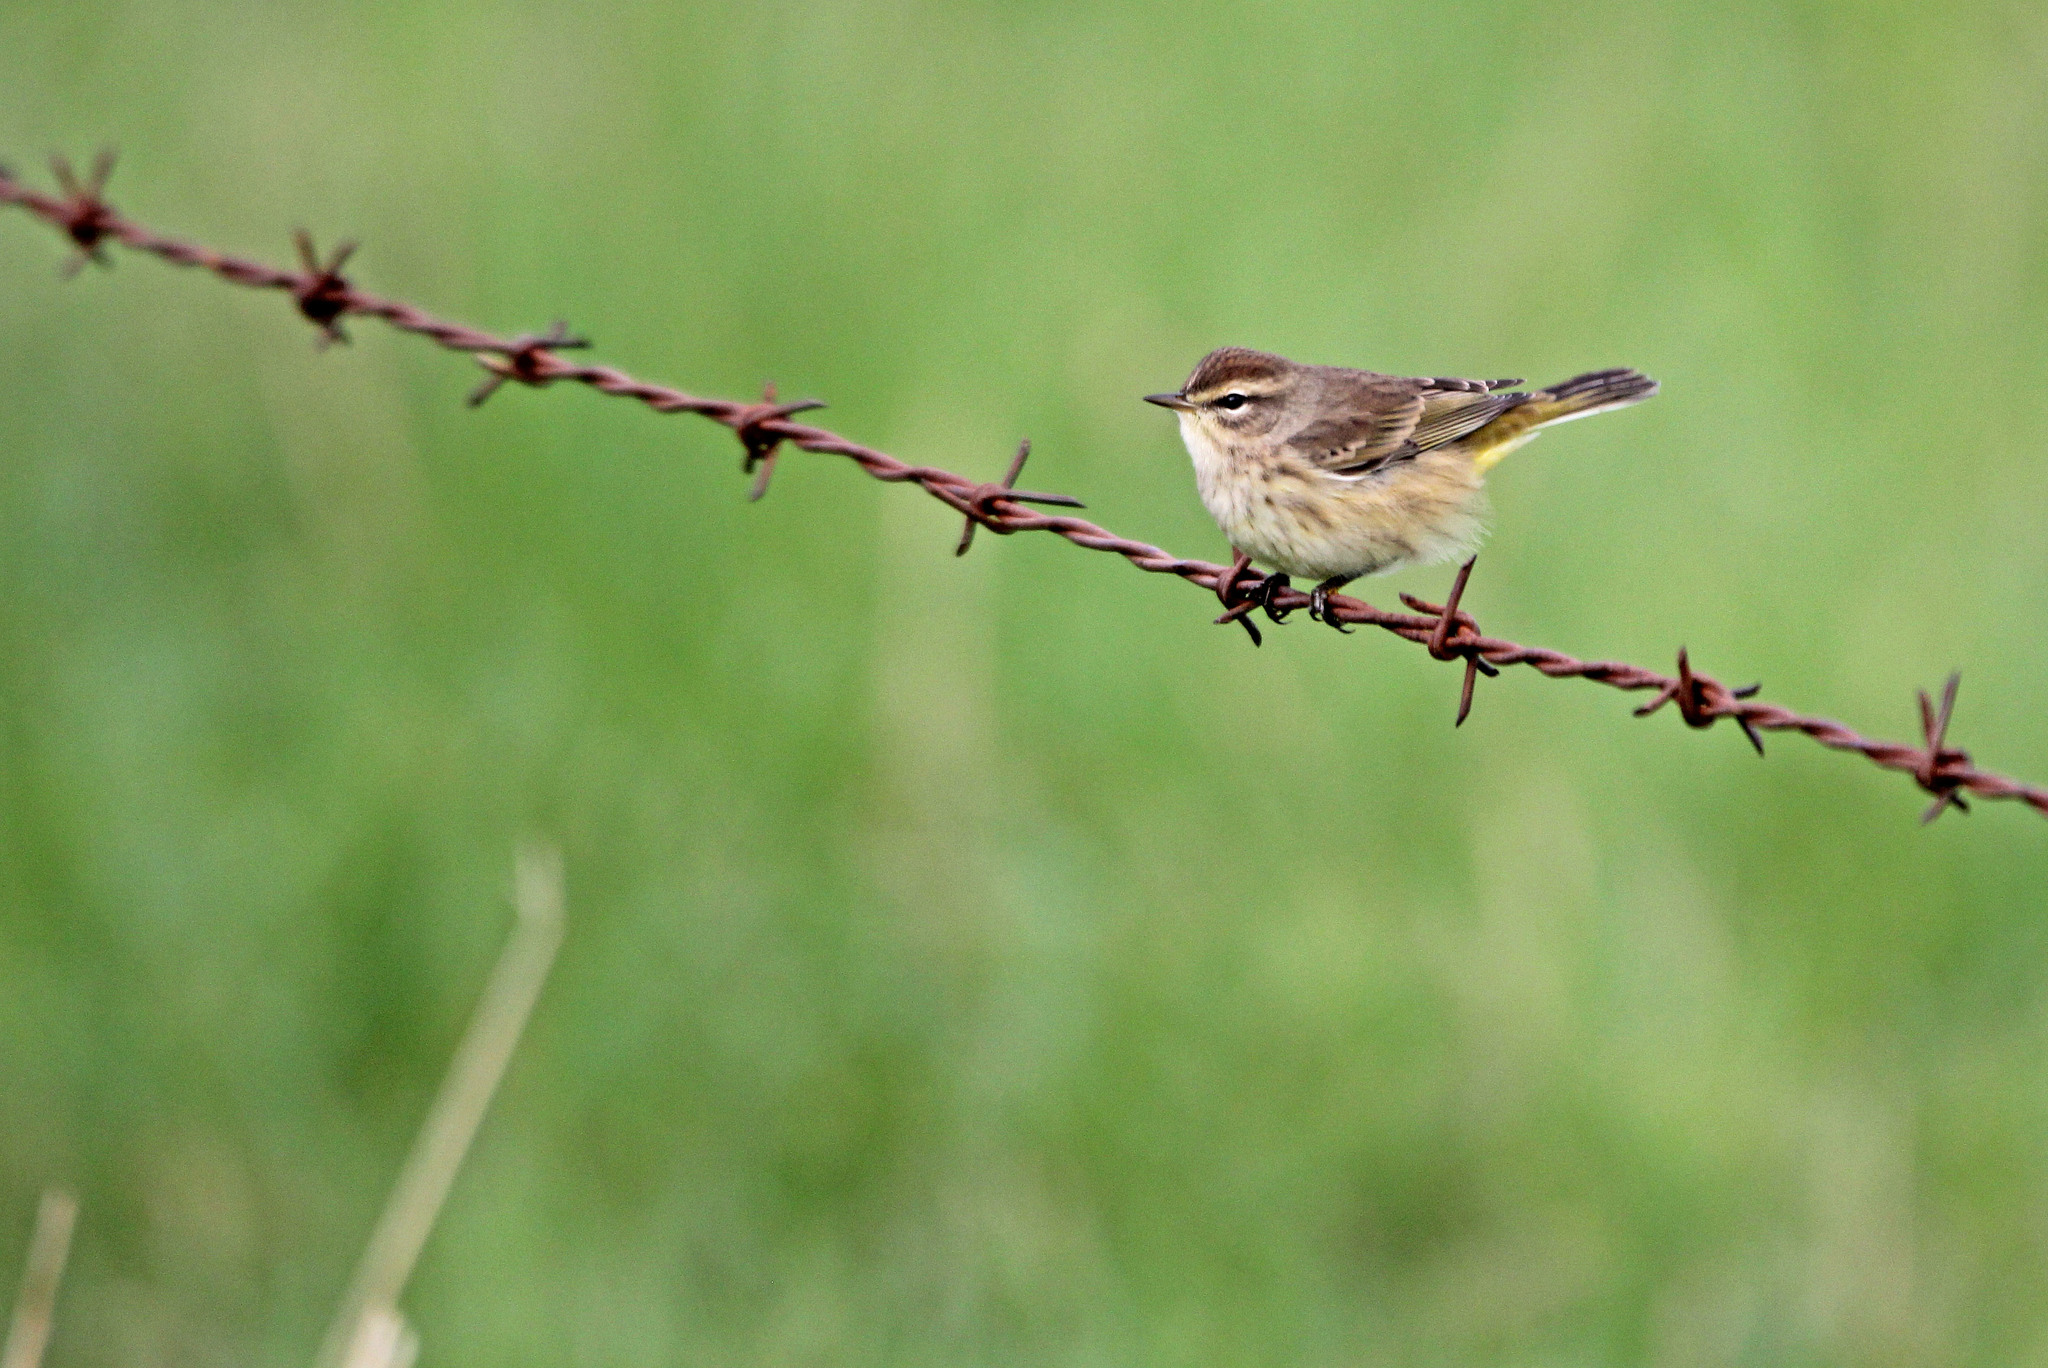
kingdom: Animalia
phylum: Chordata
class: Aves
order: Passeriformes
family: Parulidae
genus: Setophaga
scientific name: Setophaga palmarum
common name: Palm warbler
